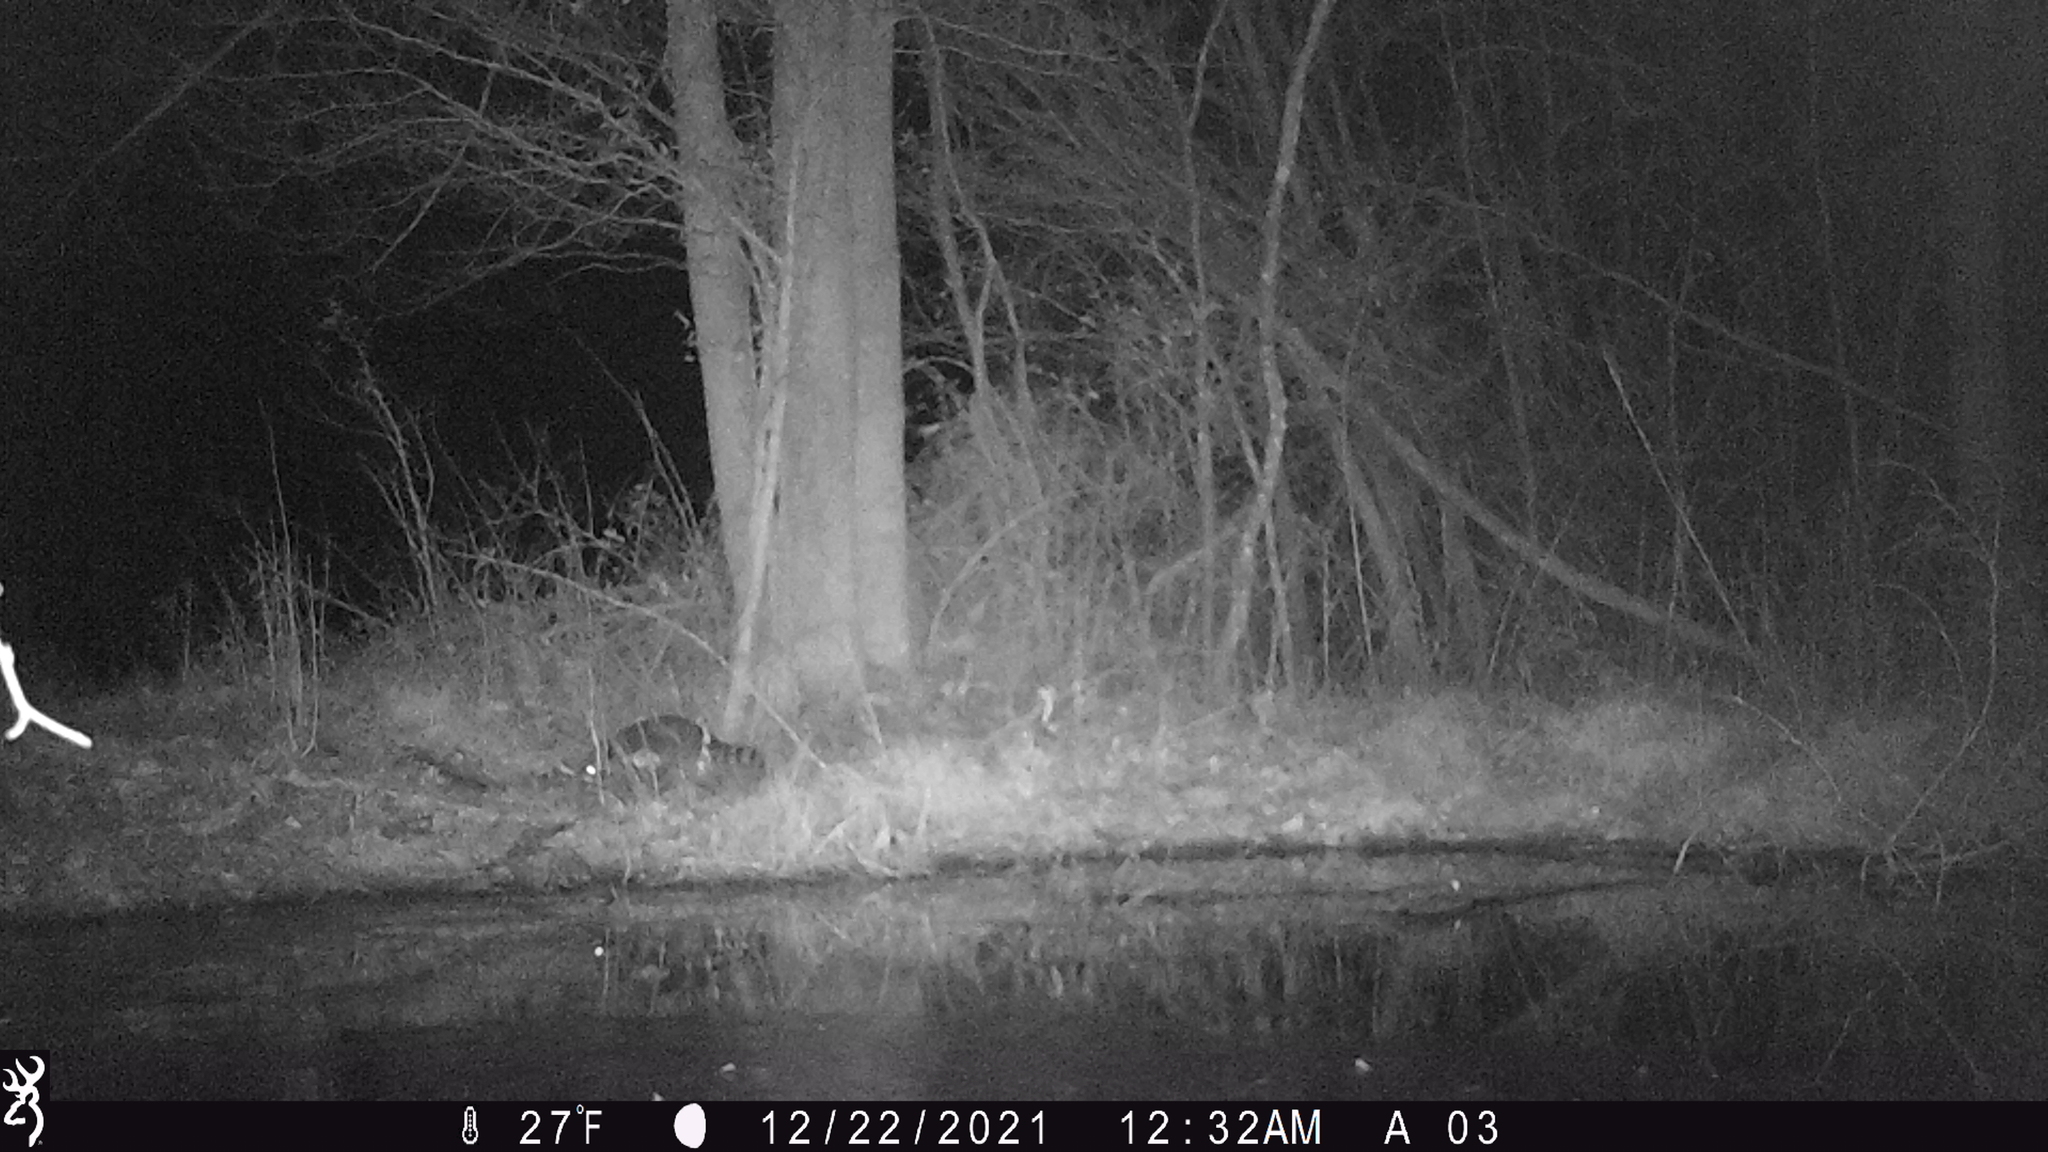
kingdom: Animalia
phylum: Chordata
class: Mammalia
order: Carnivora
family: Procyonidae
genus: Procyon
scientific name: Procyon lotor
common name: Raccoon
